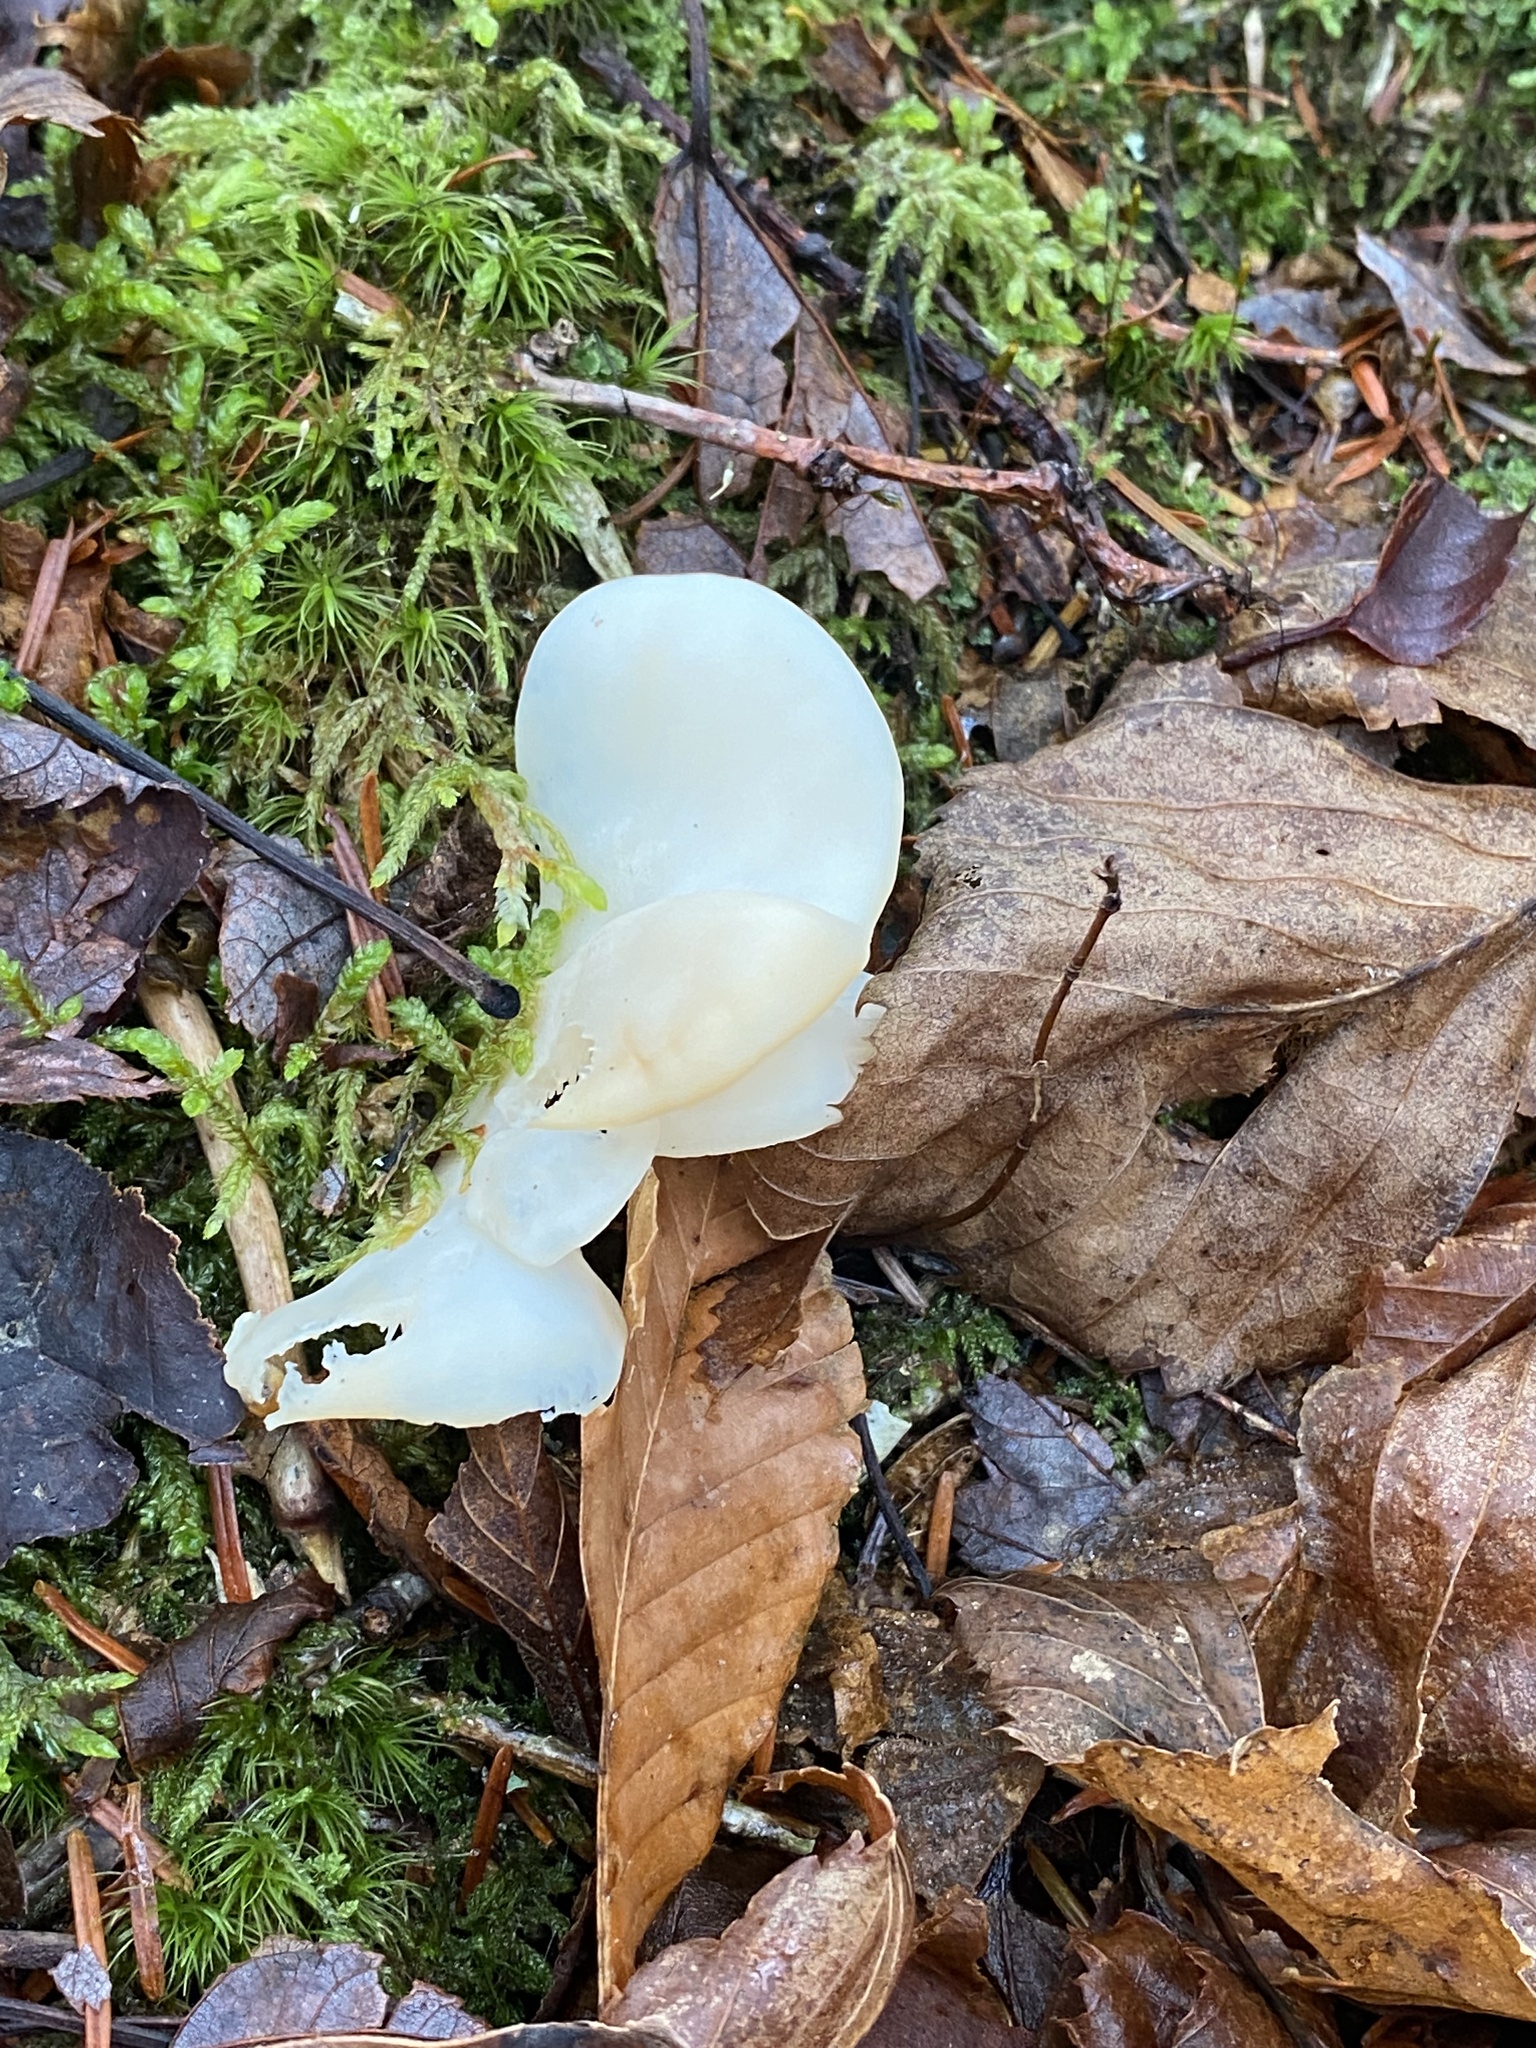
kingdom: Fungi
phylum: Basidiomycota
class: Agaricomycetes
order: Agaricales
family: Marasmiaceae
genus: Pleurocybella
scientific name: Pleurocybella porrigens
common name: Angel's wings
